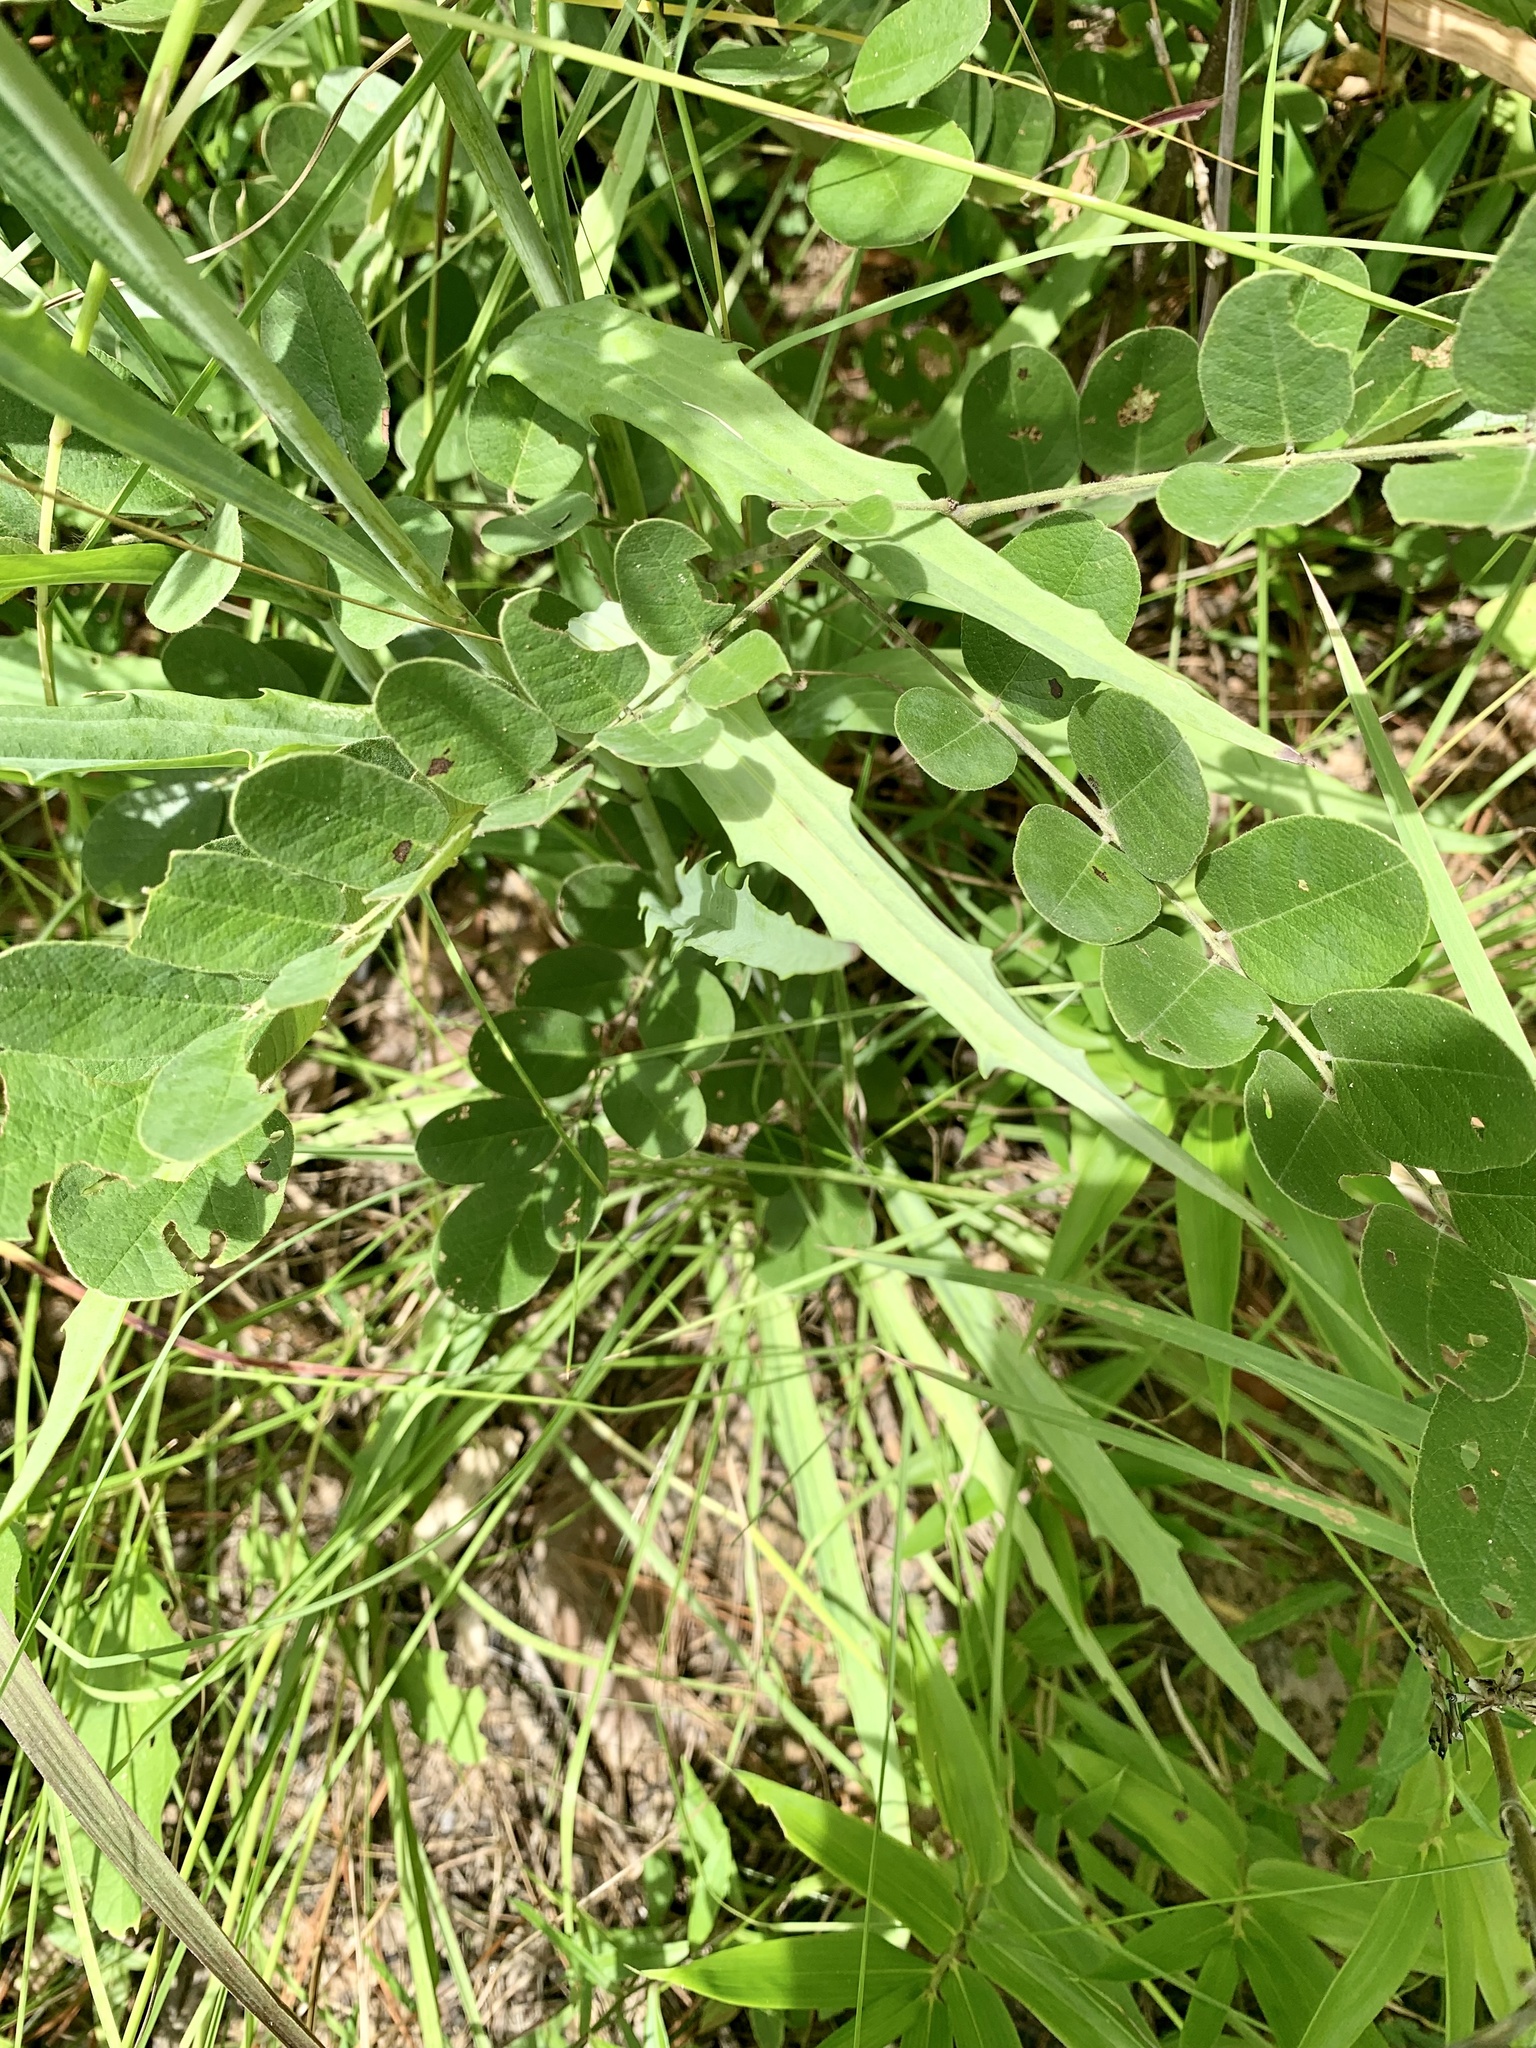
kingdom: Plantae
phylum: Tracheophyta
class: Magnoliopsida
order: Asterales
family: Asteraceae
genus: Arnoglossum
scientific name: Arnoglossum ovatum
